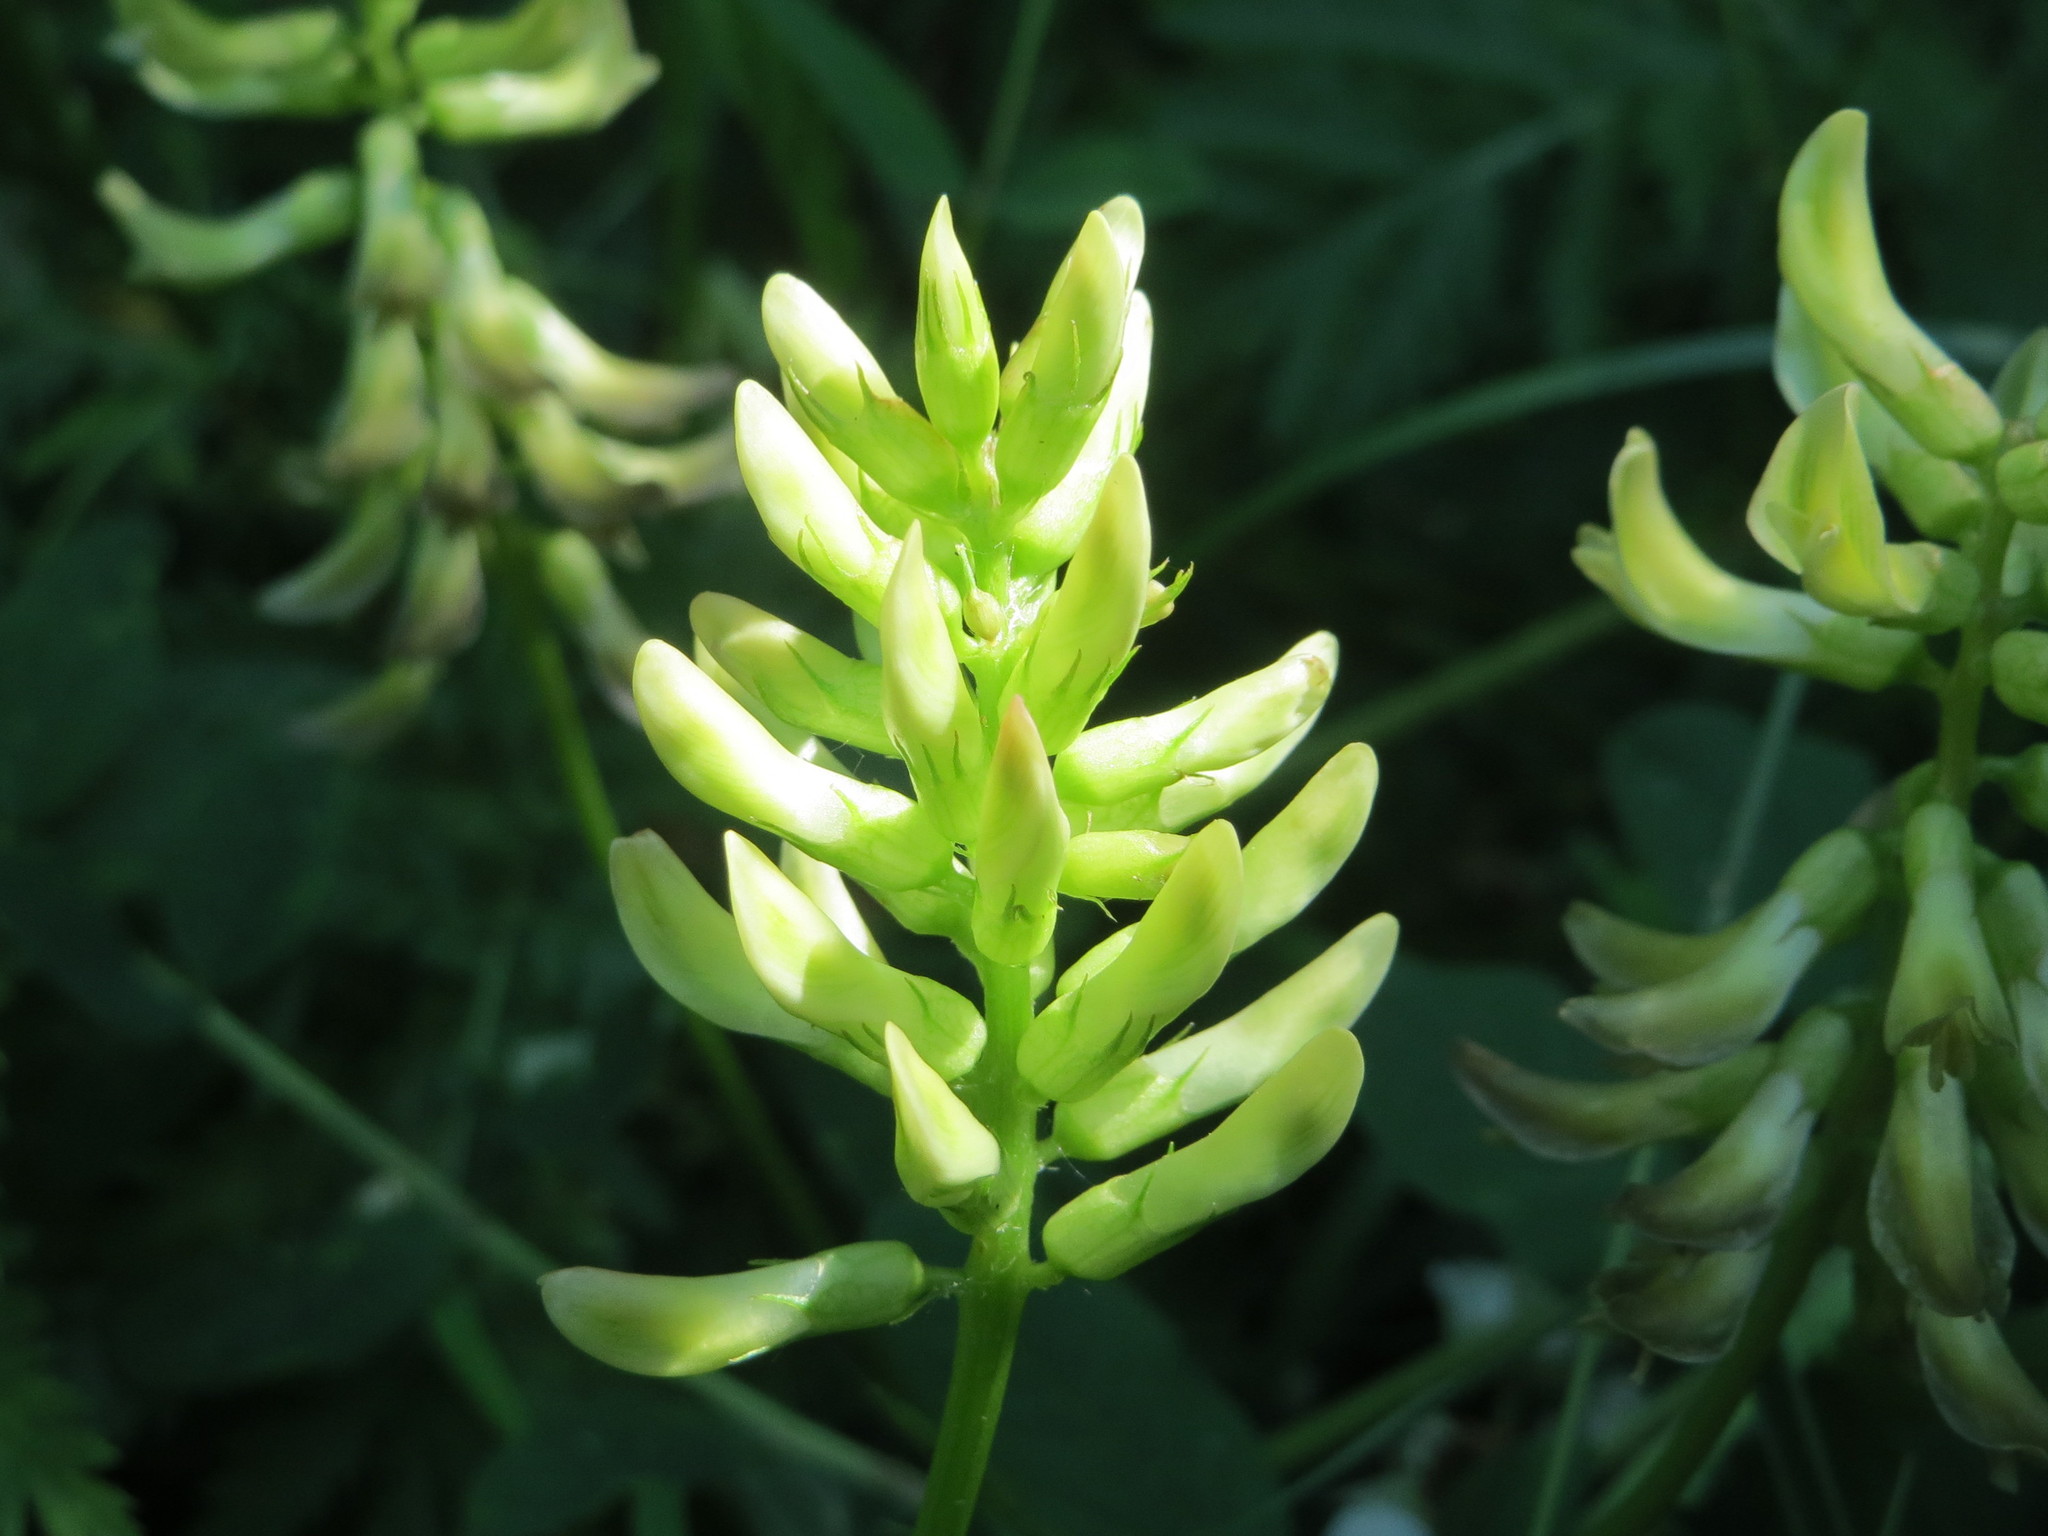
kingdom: Plantae
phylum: Tracheophyta
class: Magnoliopsida
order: Fabales
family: Fabaceae
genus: Astragalus
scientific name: Astragalus glycyphyllos
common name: Wild liquorice
